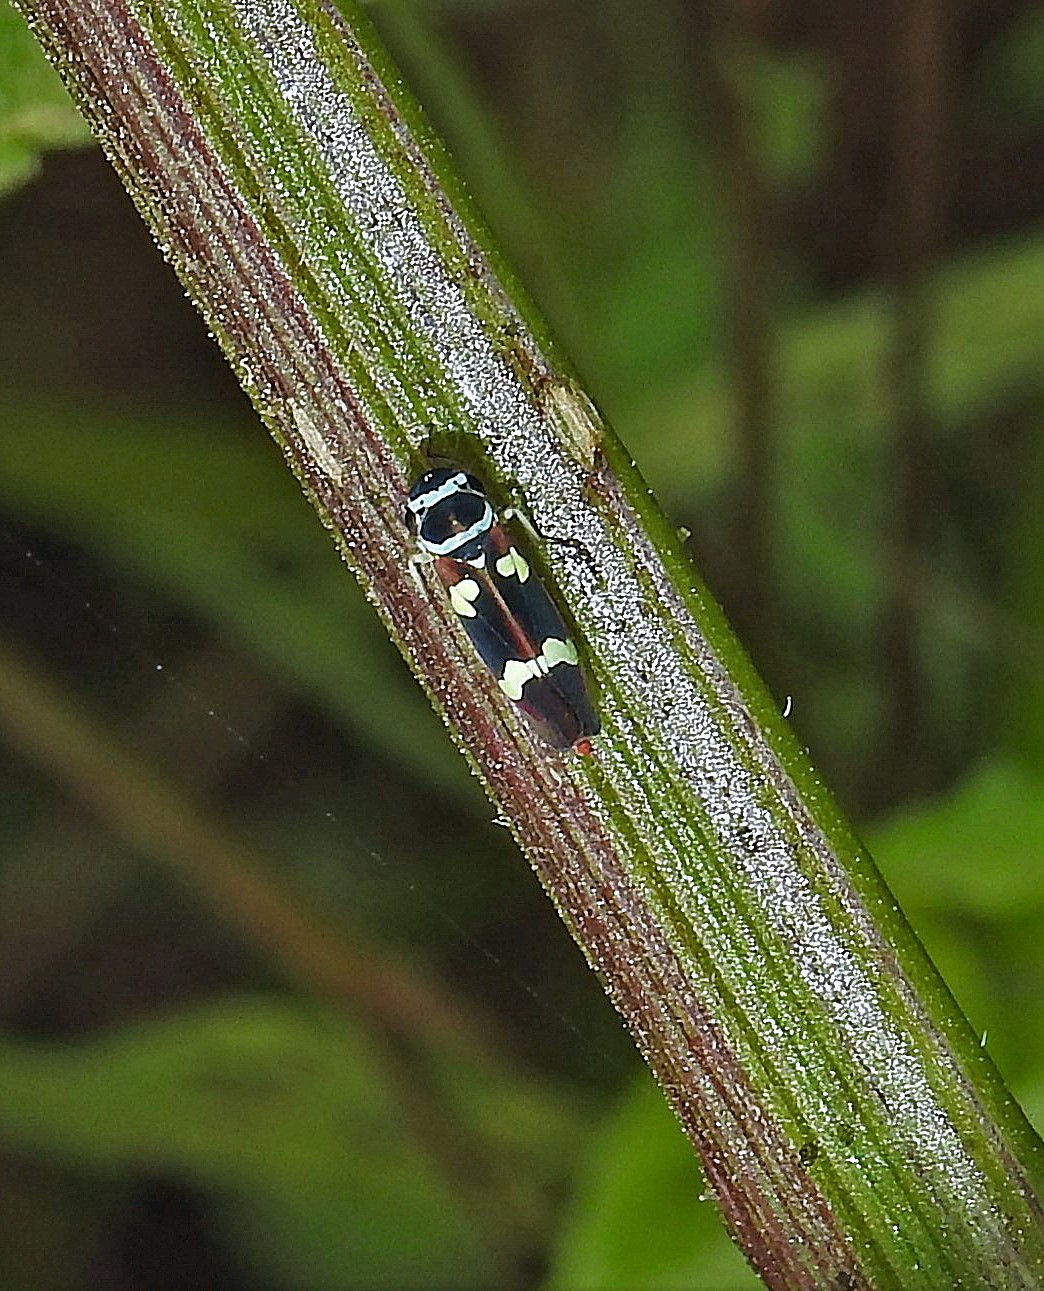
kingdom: Animalia
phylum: Arthropoda
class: Insecta
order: Hemiptera
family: Cicadellidae
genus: Macugonalia
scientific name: Macugonalia leucomelas
